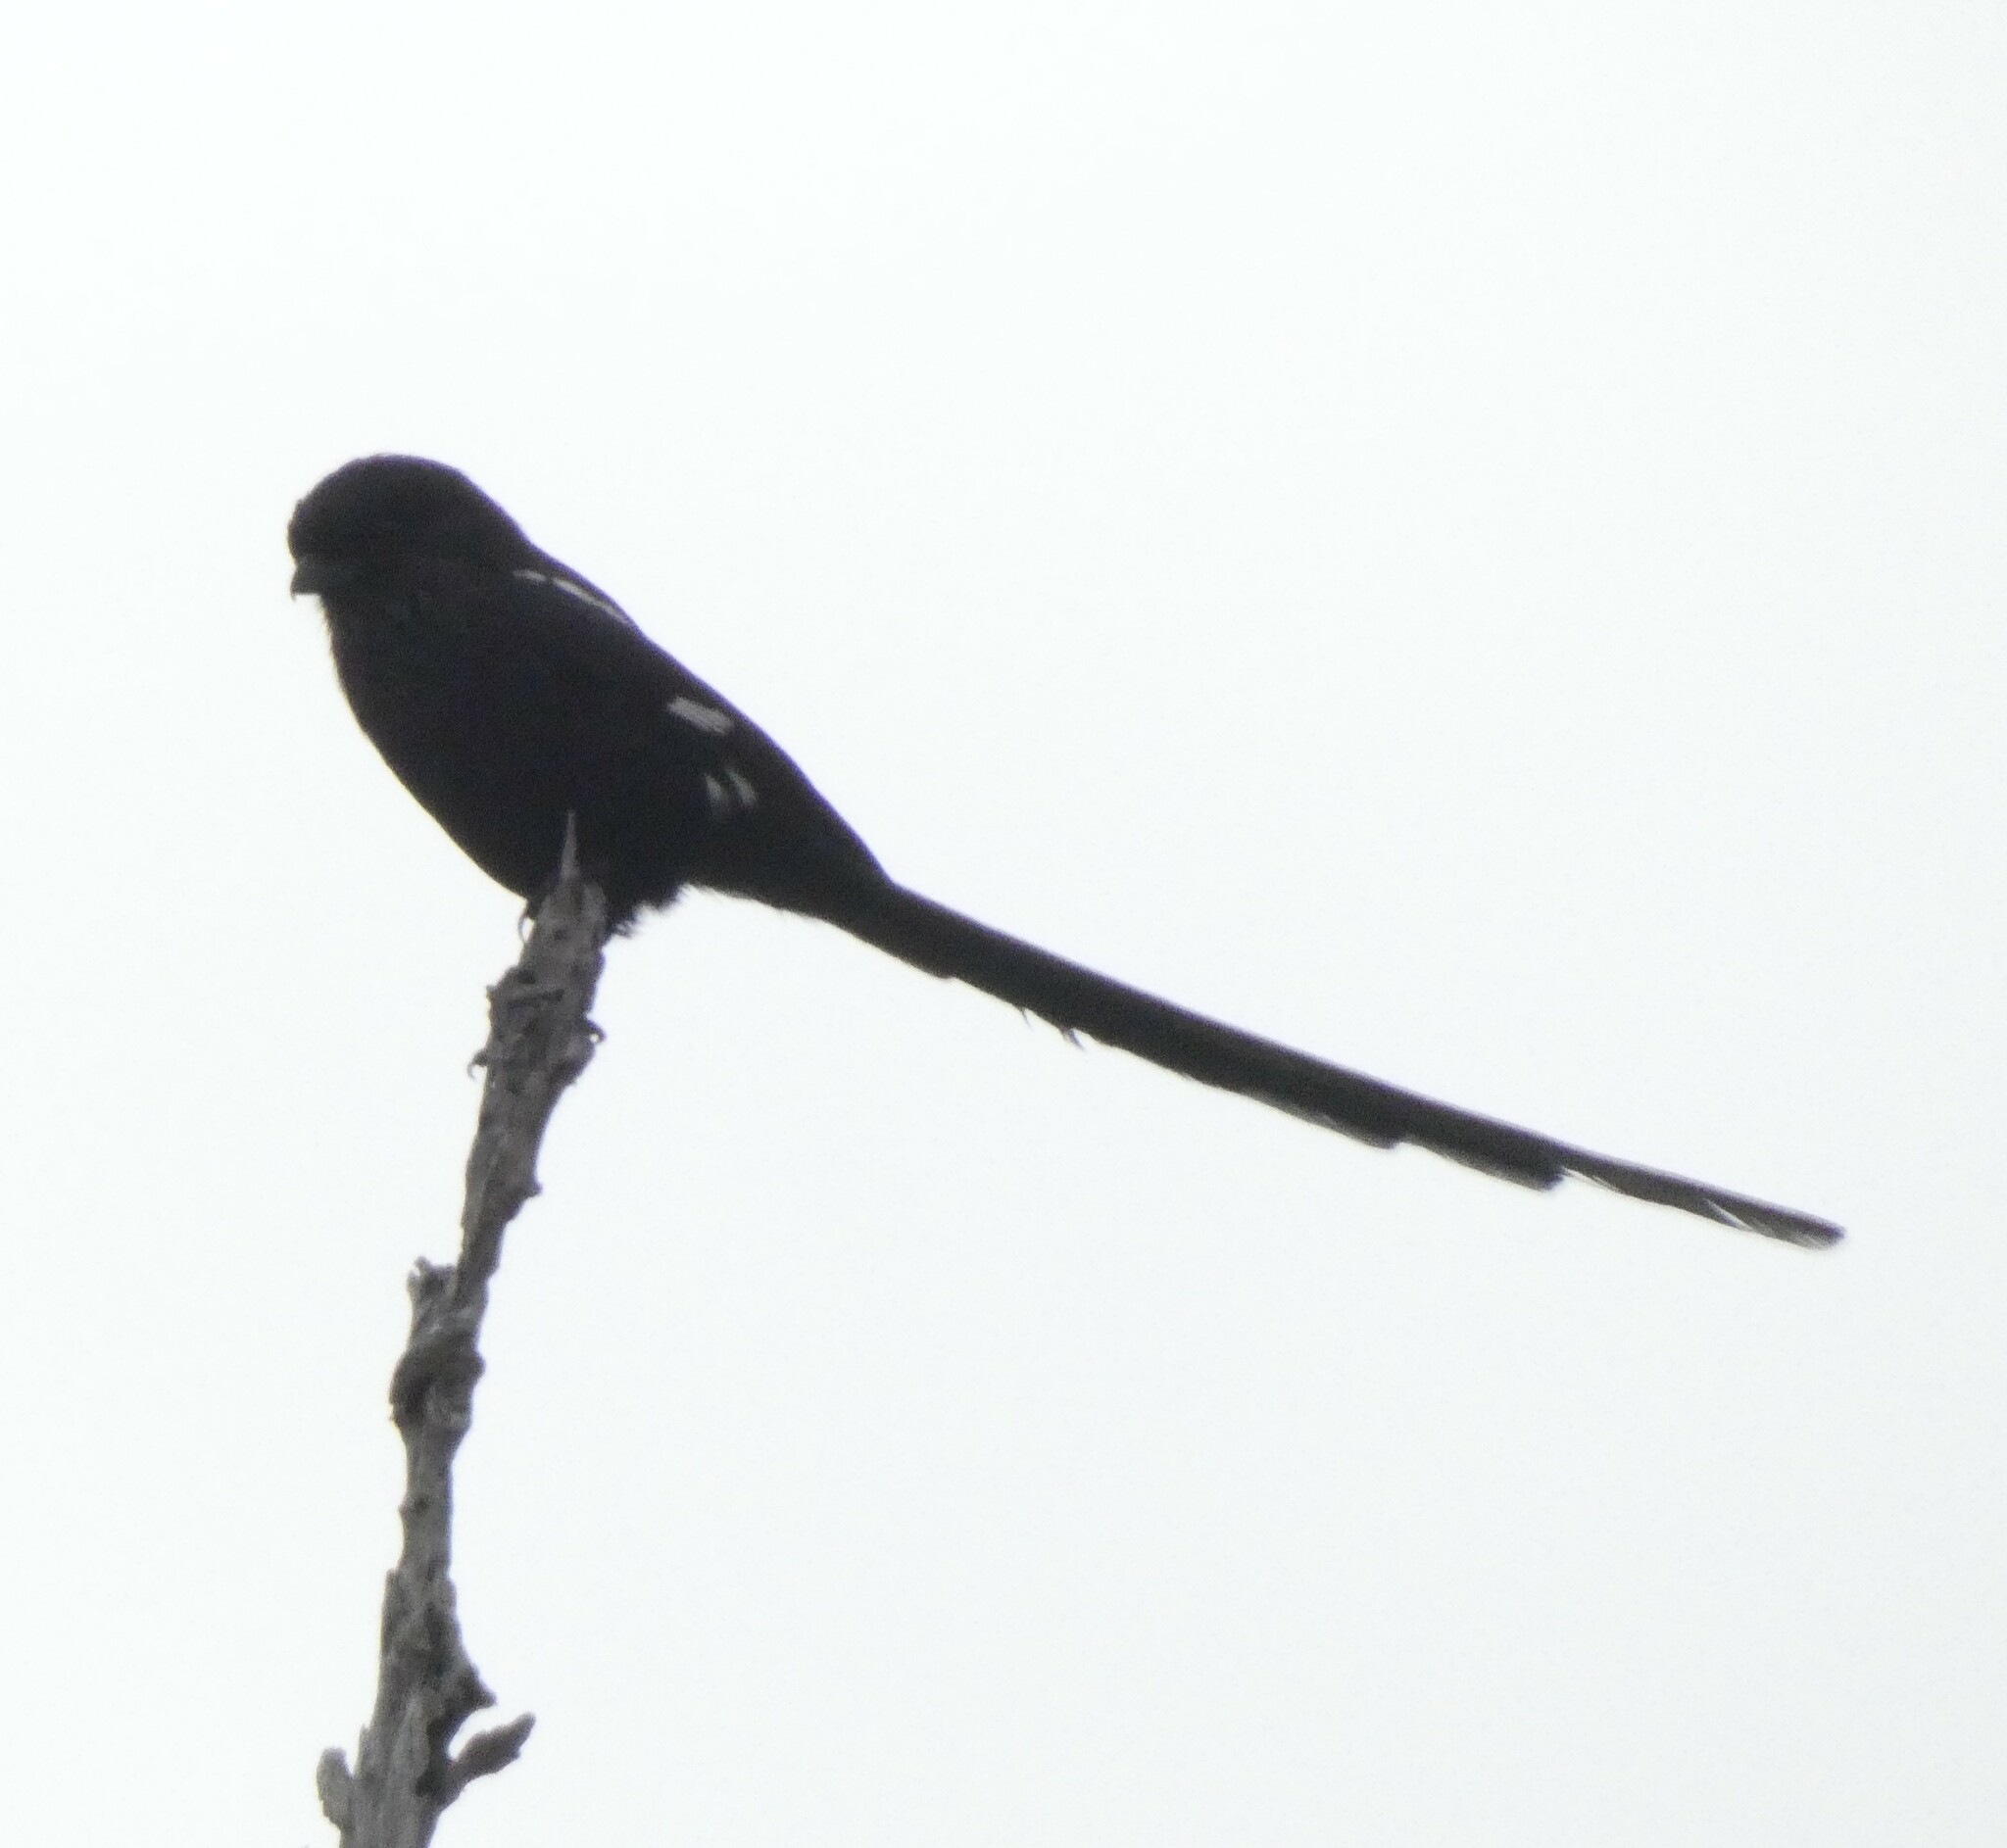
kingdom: Animalia
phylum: Chordata
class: Aves
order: Passeriformes
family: Laniidae
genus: Urolestes
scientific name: Urolestes melanoleucus
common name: Magpie shrike
